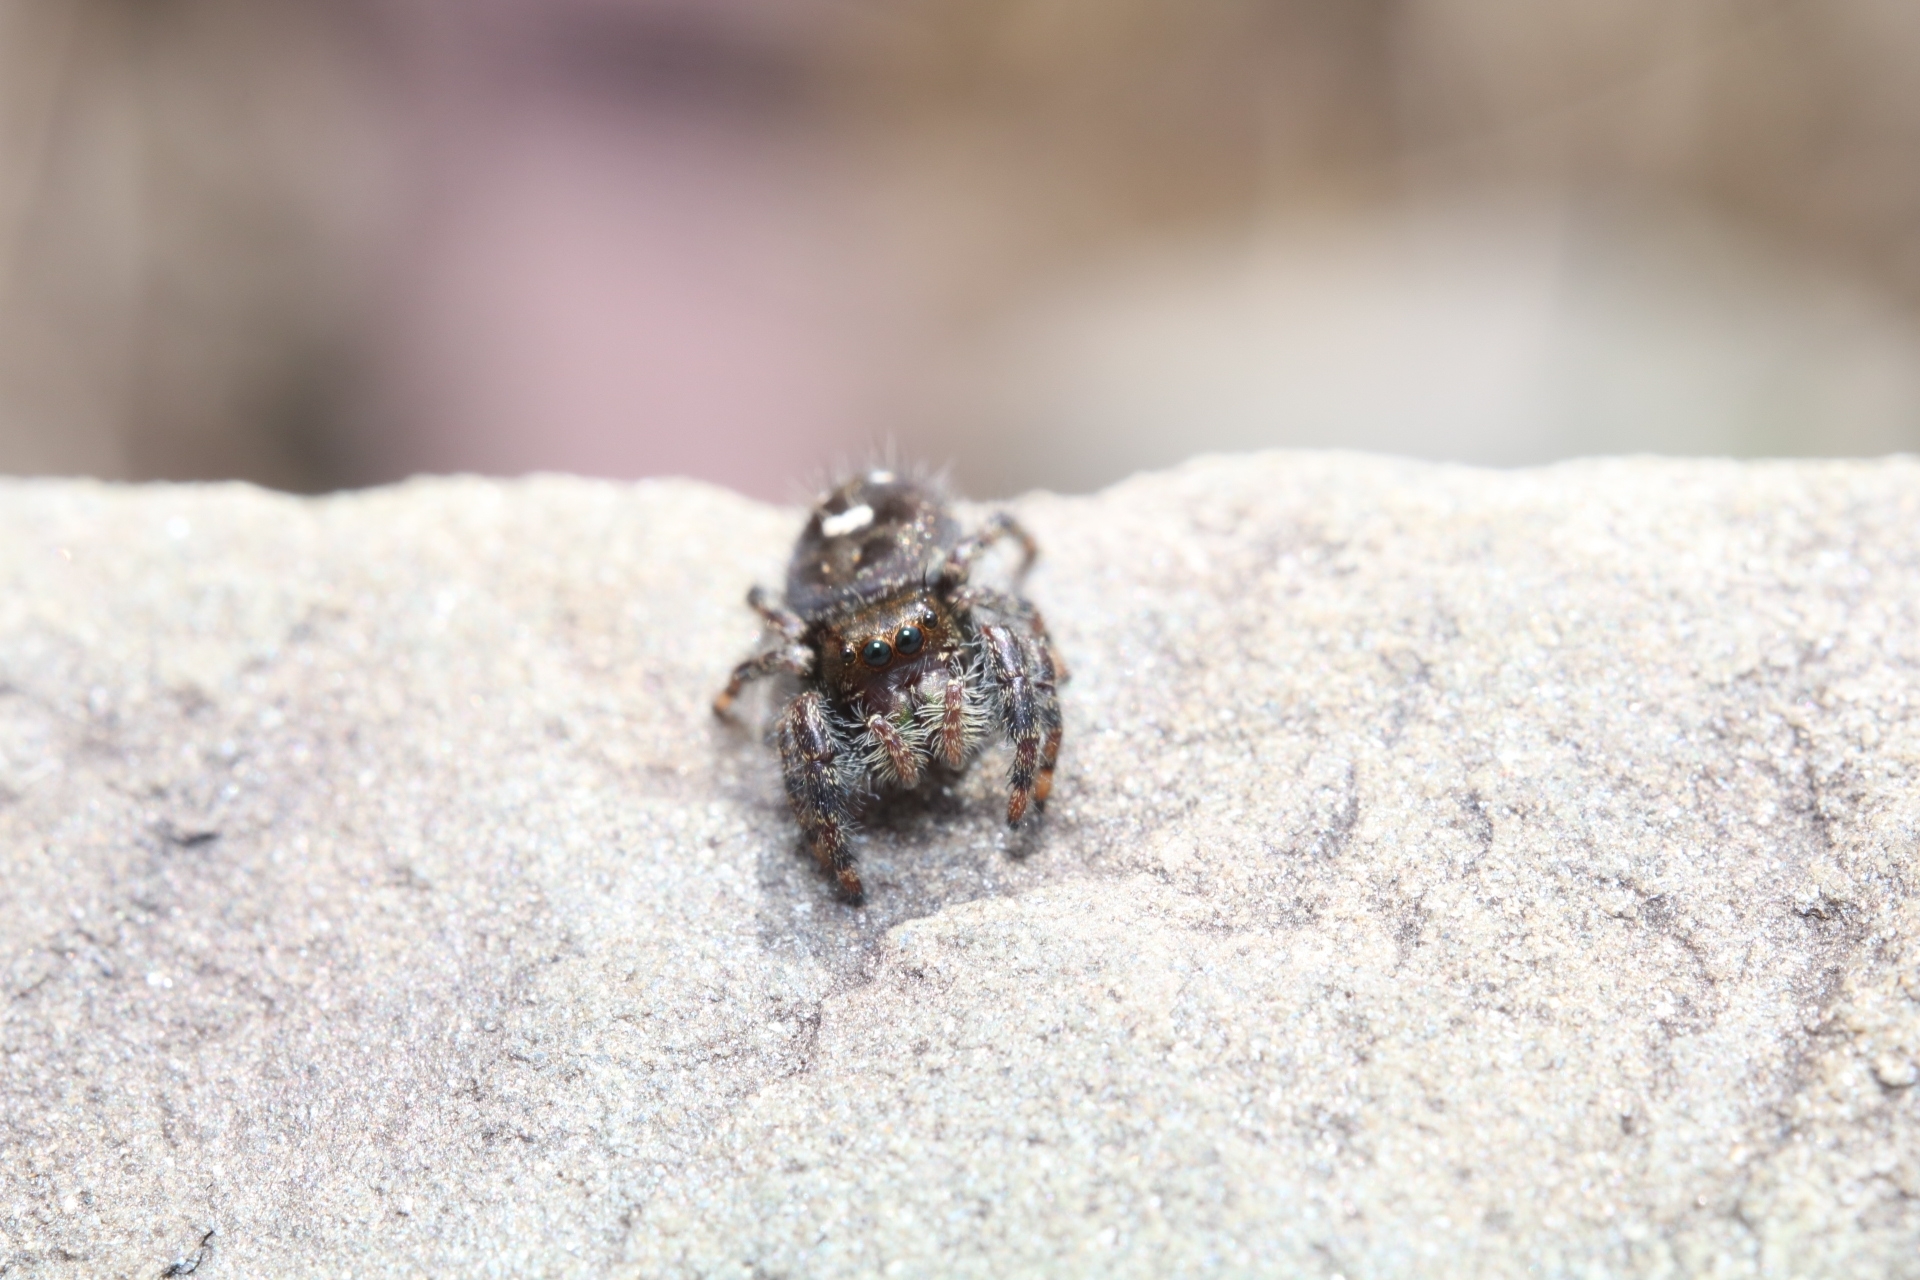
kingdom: Animalia
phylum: Arthropoda
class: Arachnida
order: Araneae
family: Salticidae
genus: Phidippus
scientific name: Phidippus audax
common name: Bold jumper
